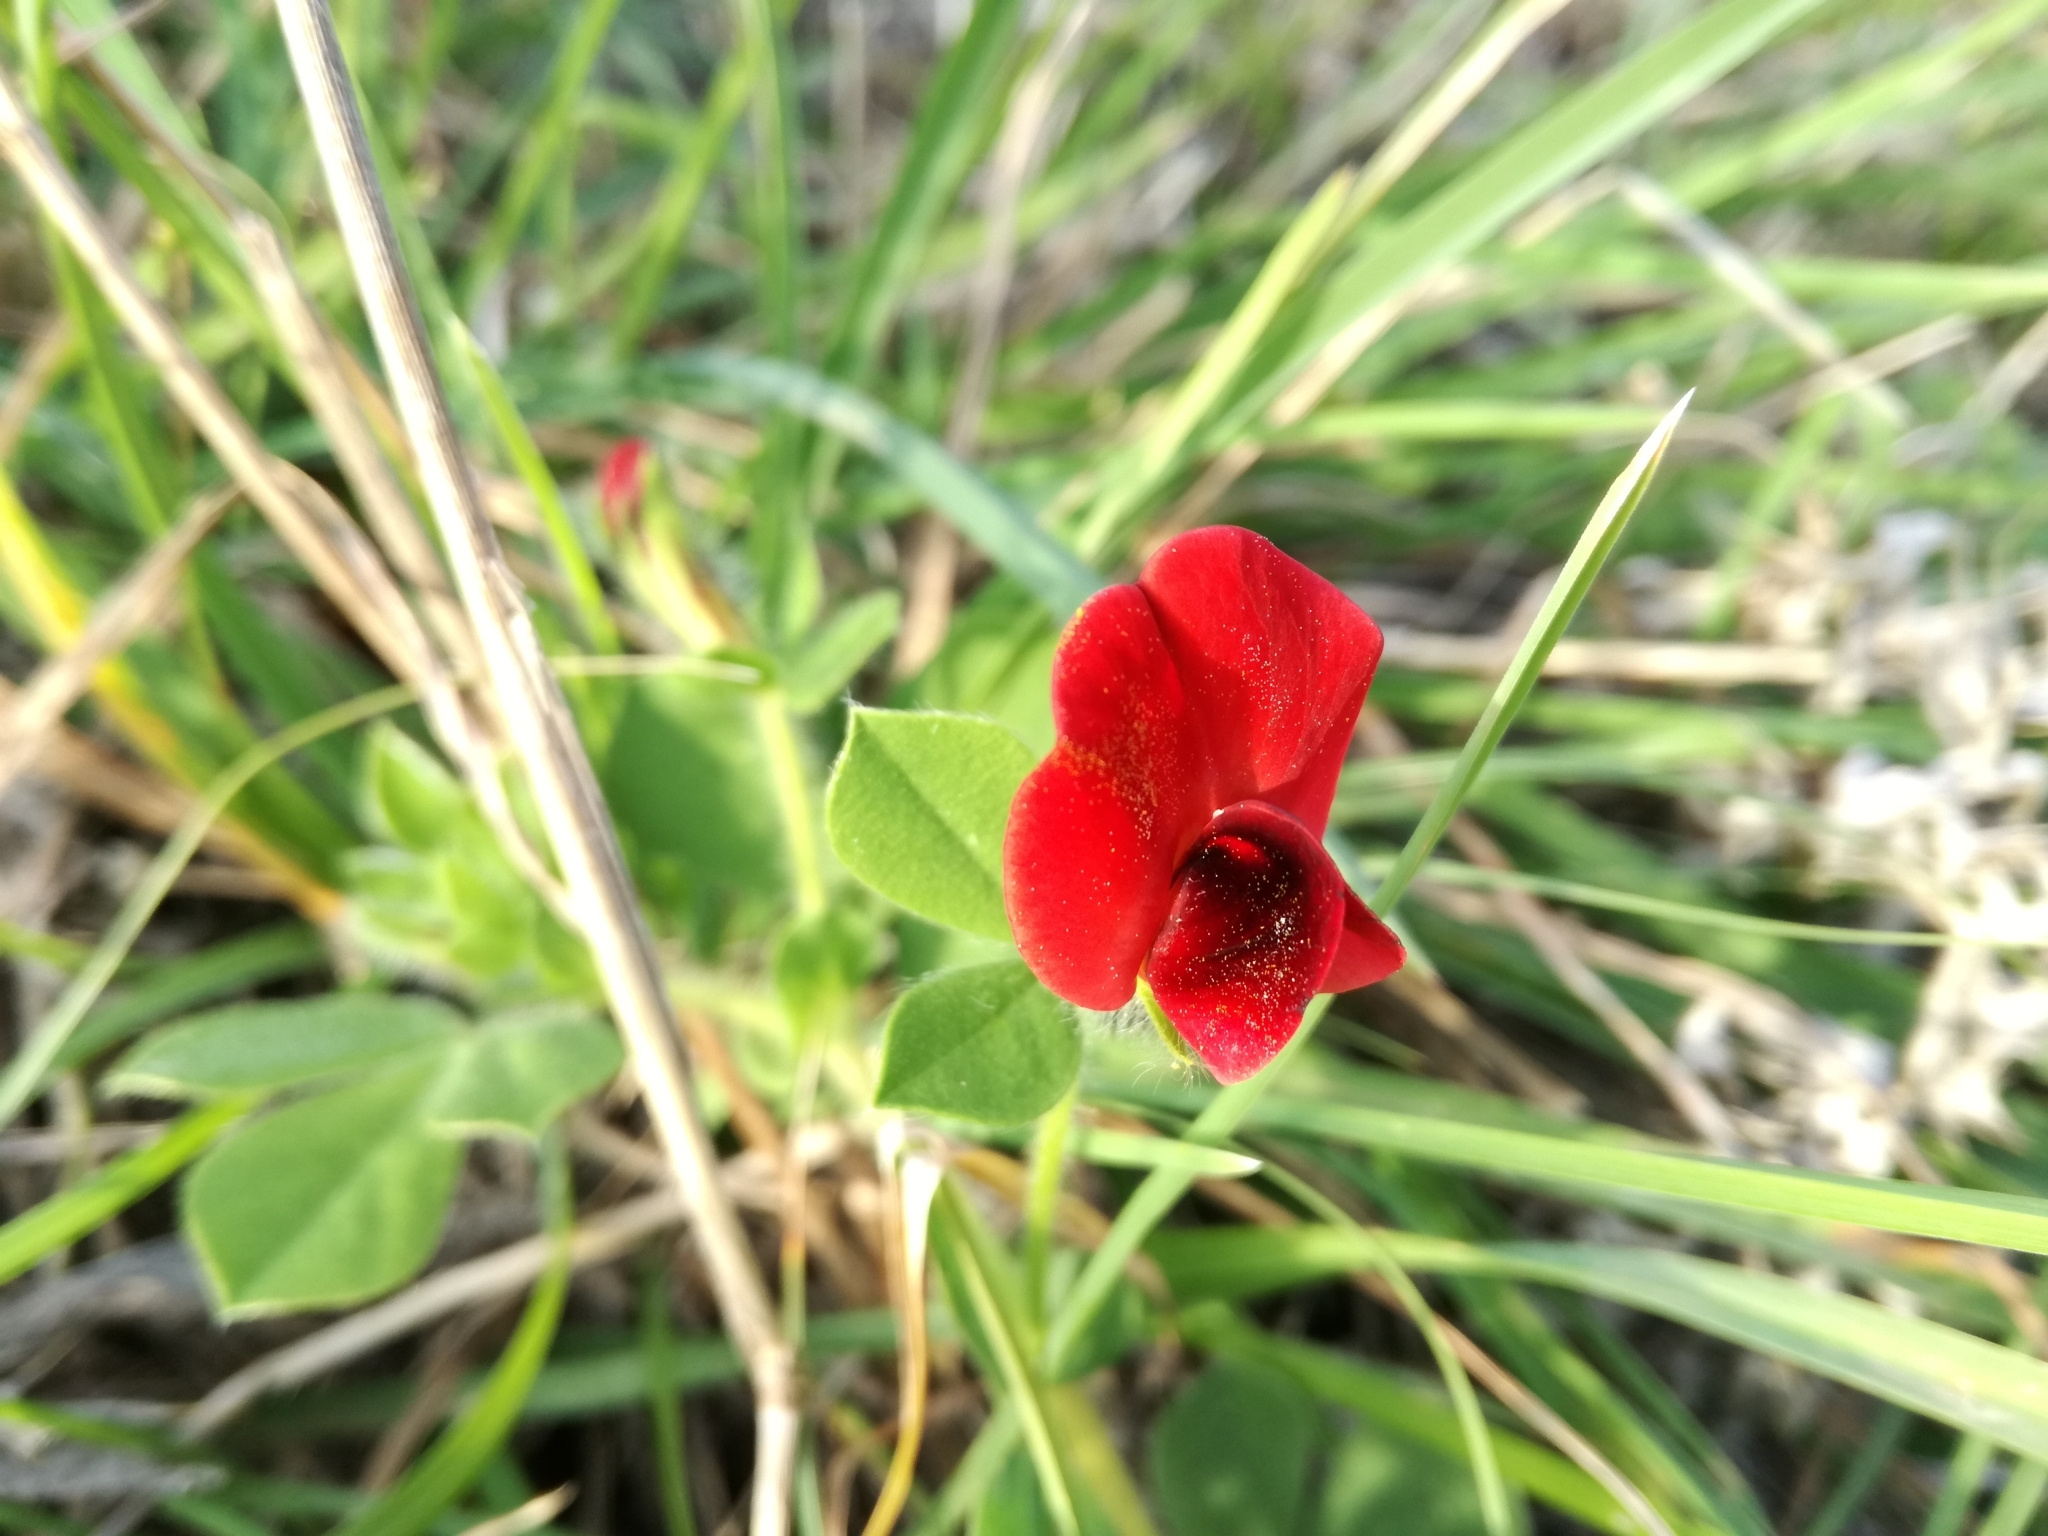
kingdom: Plantae
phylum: Tracheophyta
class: Magnoliopsida
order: Fabales
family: Fabaceae
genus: Lotus
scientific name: Lotus tetragonolobus
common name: Asparagus-pea
